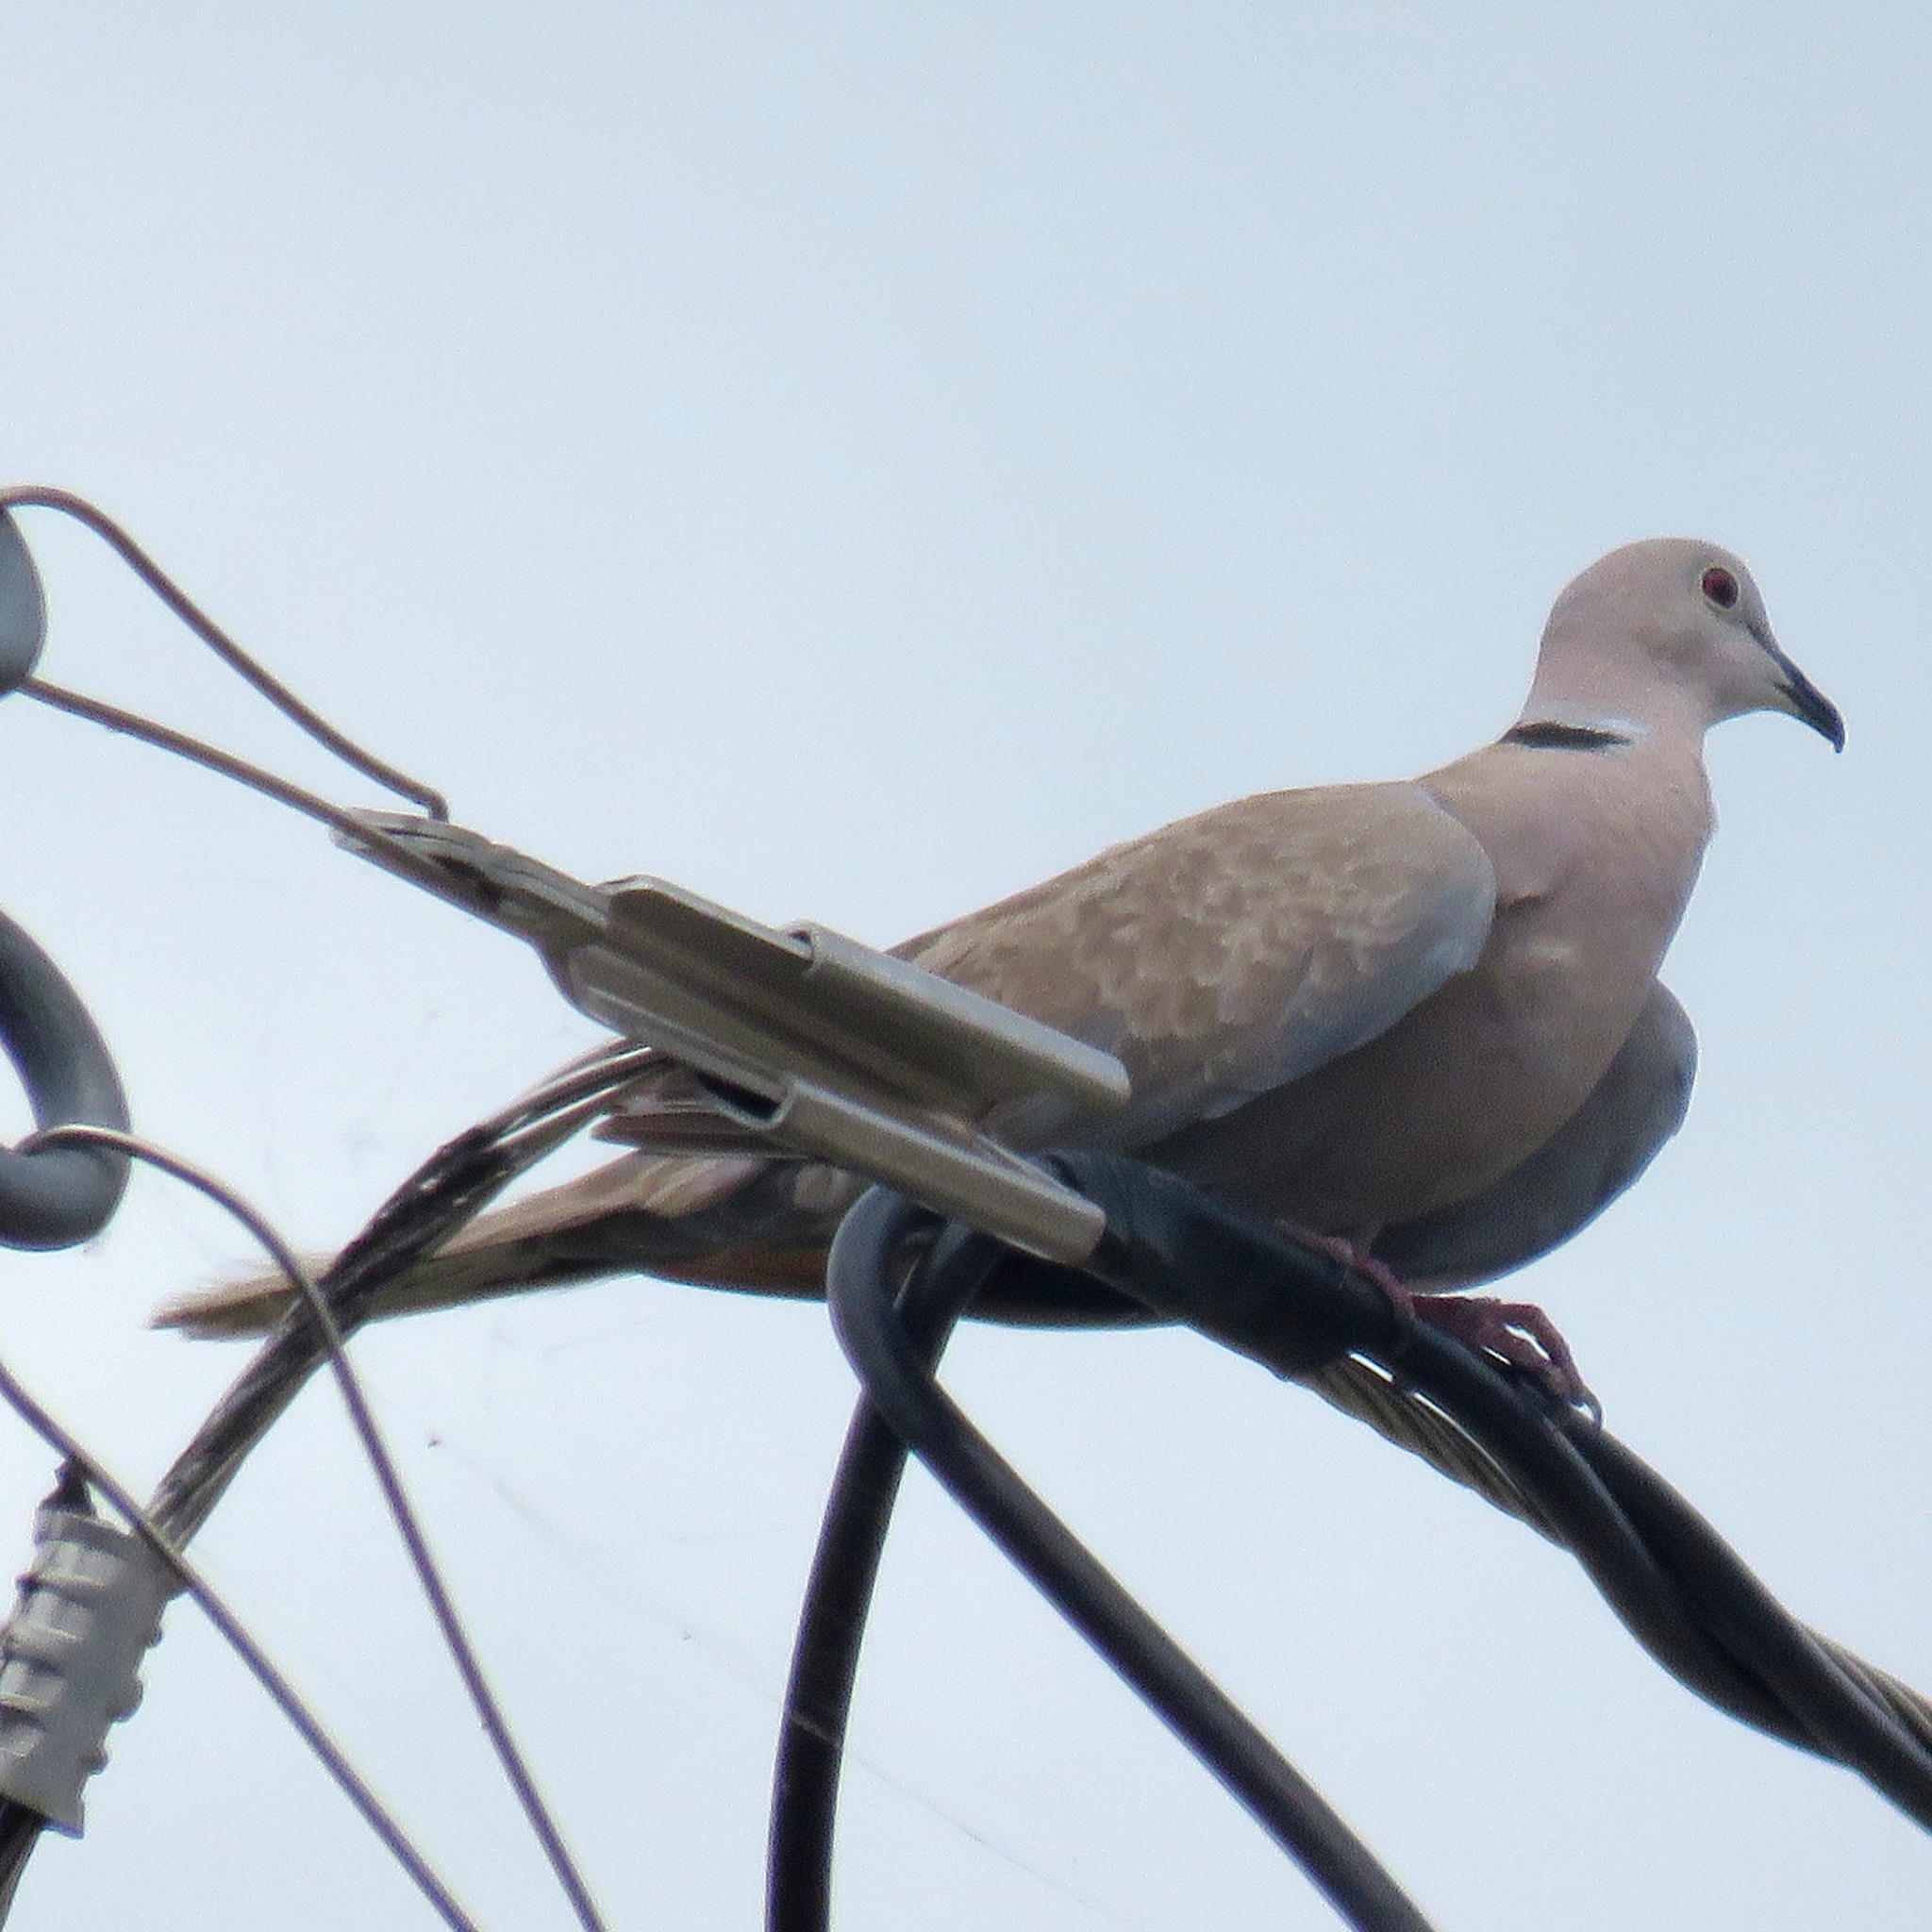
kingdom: Animalia
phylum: Chordata
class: Aves
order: Columbiformes
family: Columbidae
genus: Streptopelia
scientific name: Streptopelia decaocto
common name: Eurasian collared dove
